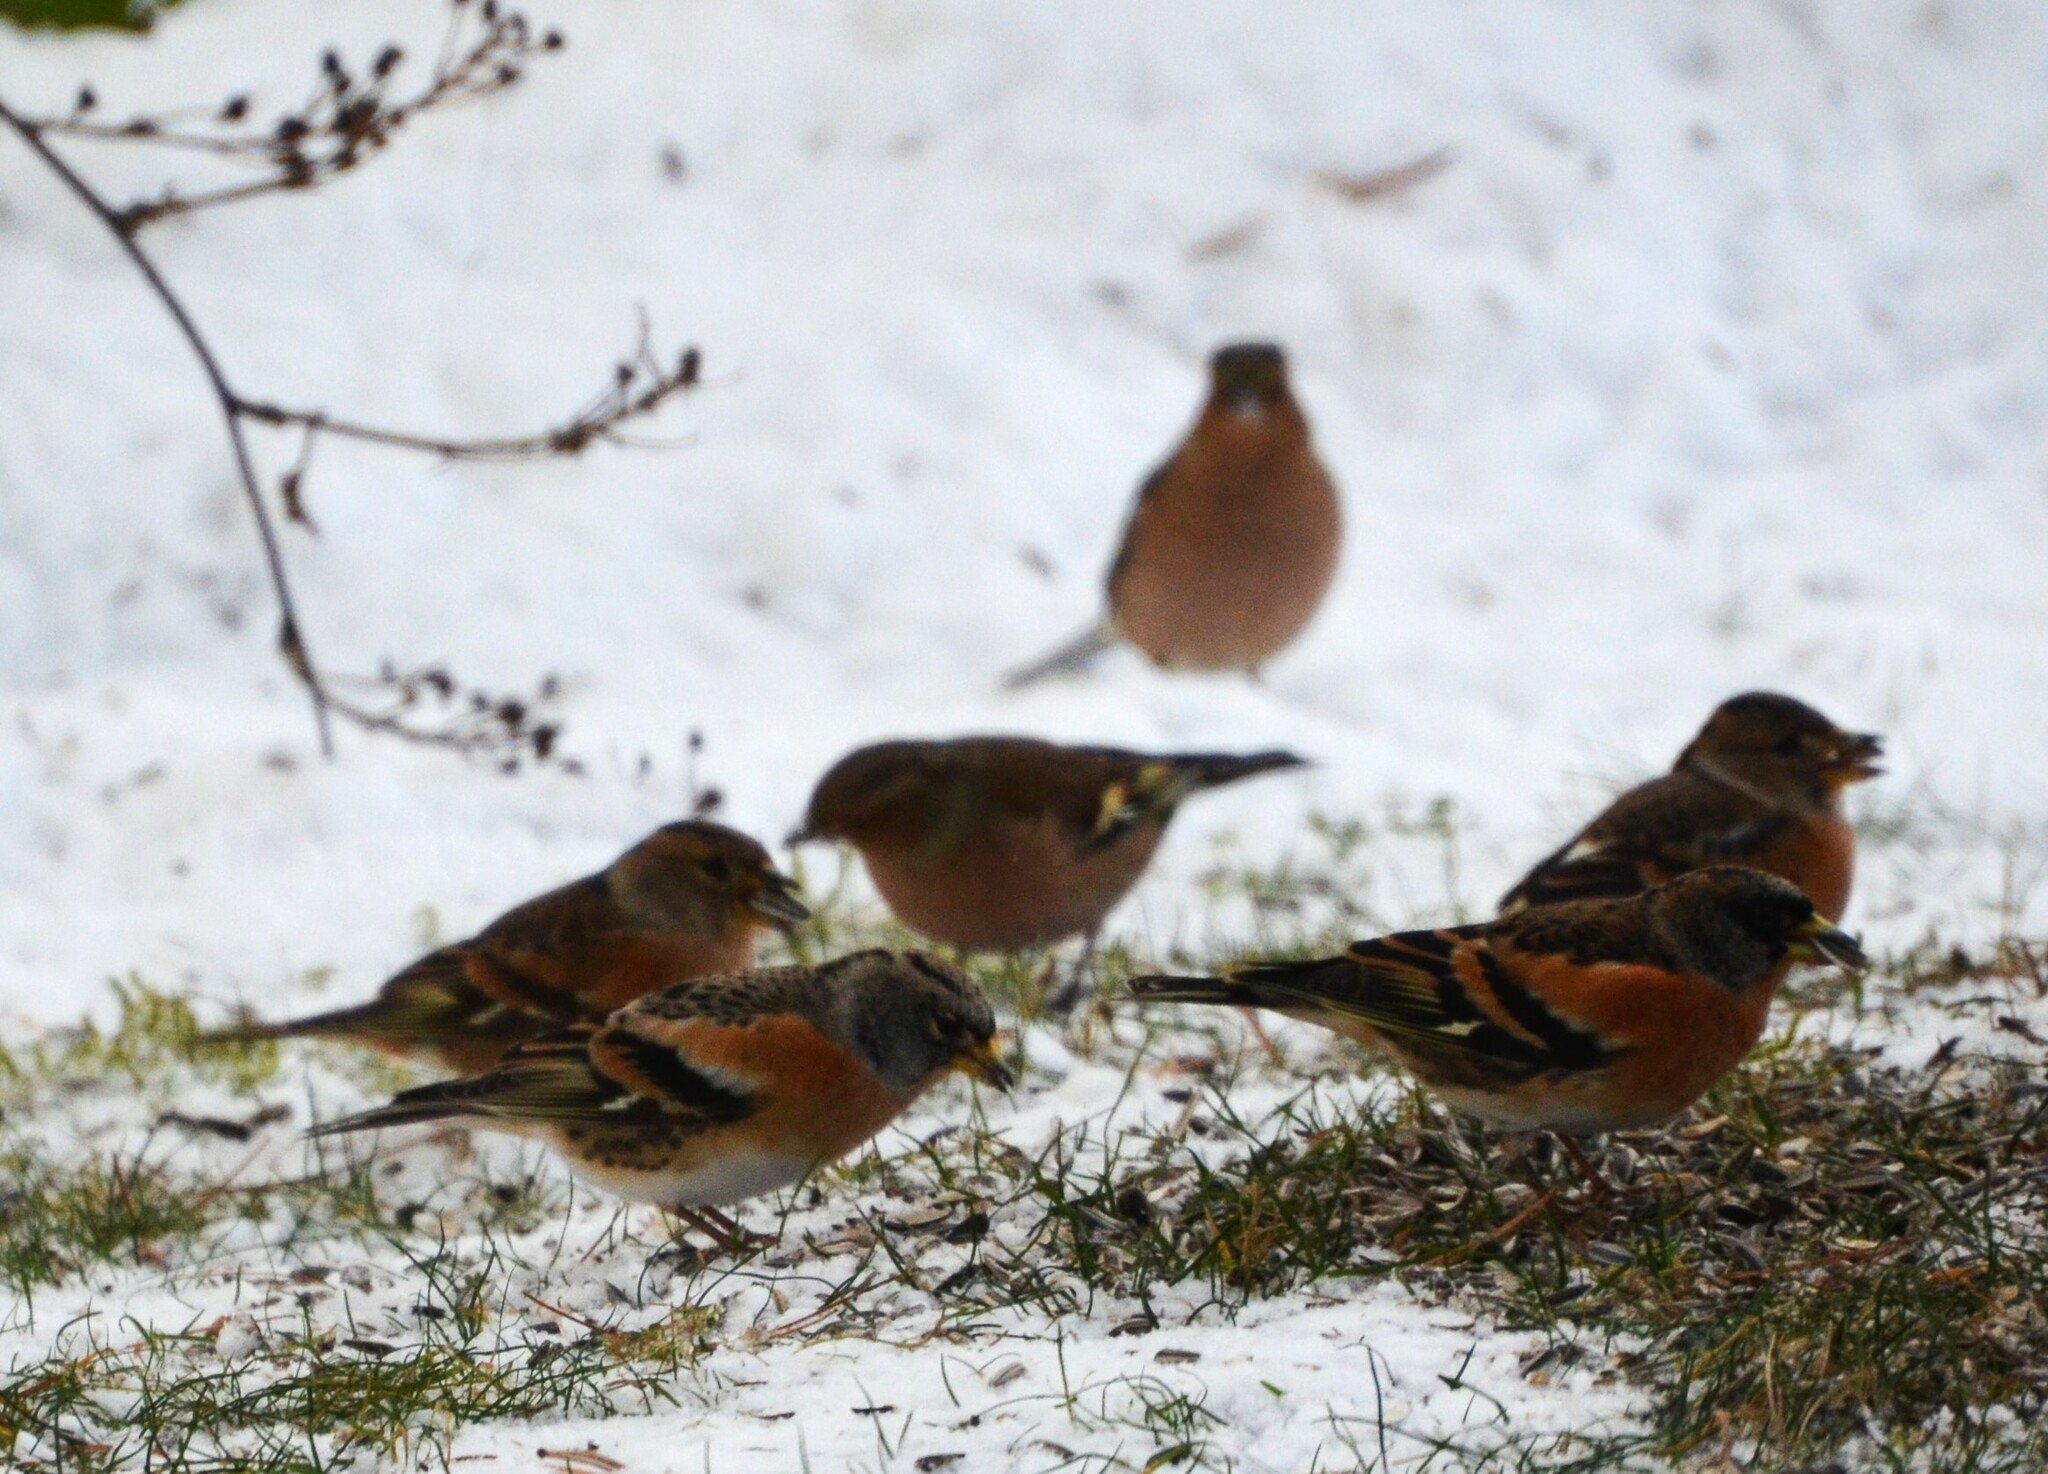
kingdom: Animalia
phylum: Chordata
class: Aves
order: Passeriformes
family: Fringillidae
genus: Fringilla
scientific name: Fringilla montifringilla
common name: Brambling
